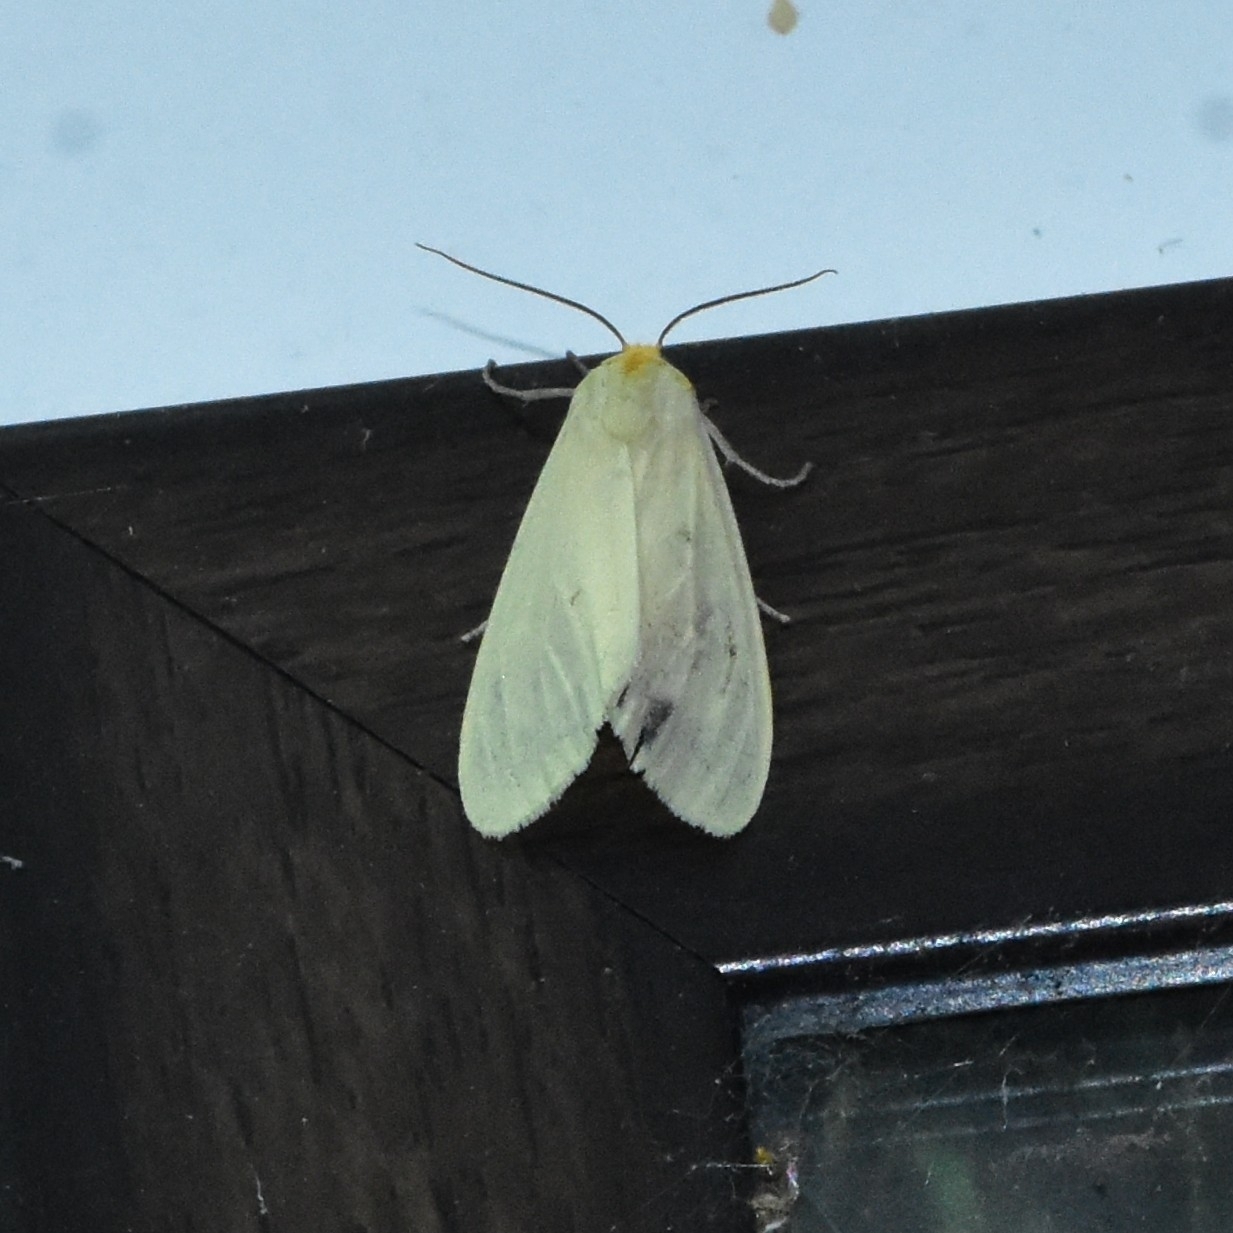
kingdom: Animalia
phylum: Arthropoda
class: Insecta
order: Lepidoptera
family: Erebidae
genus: Pareuchaetes
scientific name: Pareuchaetes pseudoinsulata
